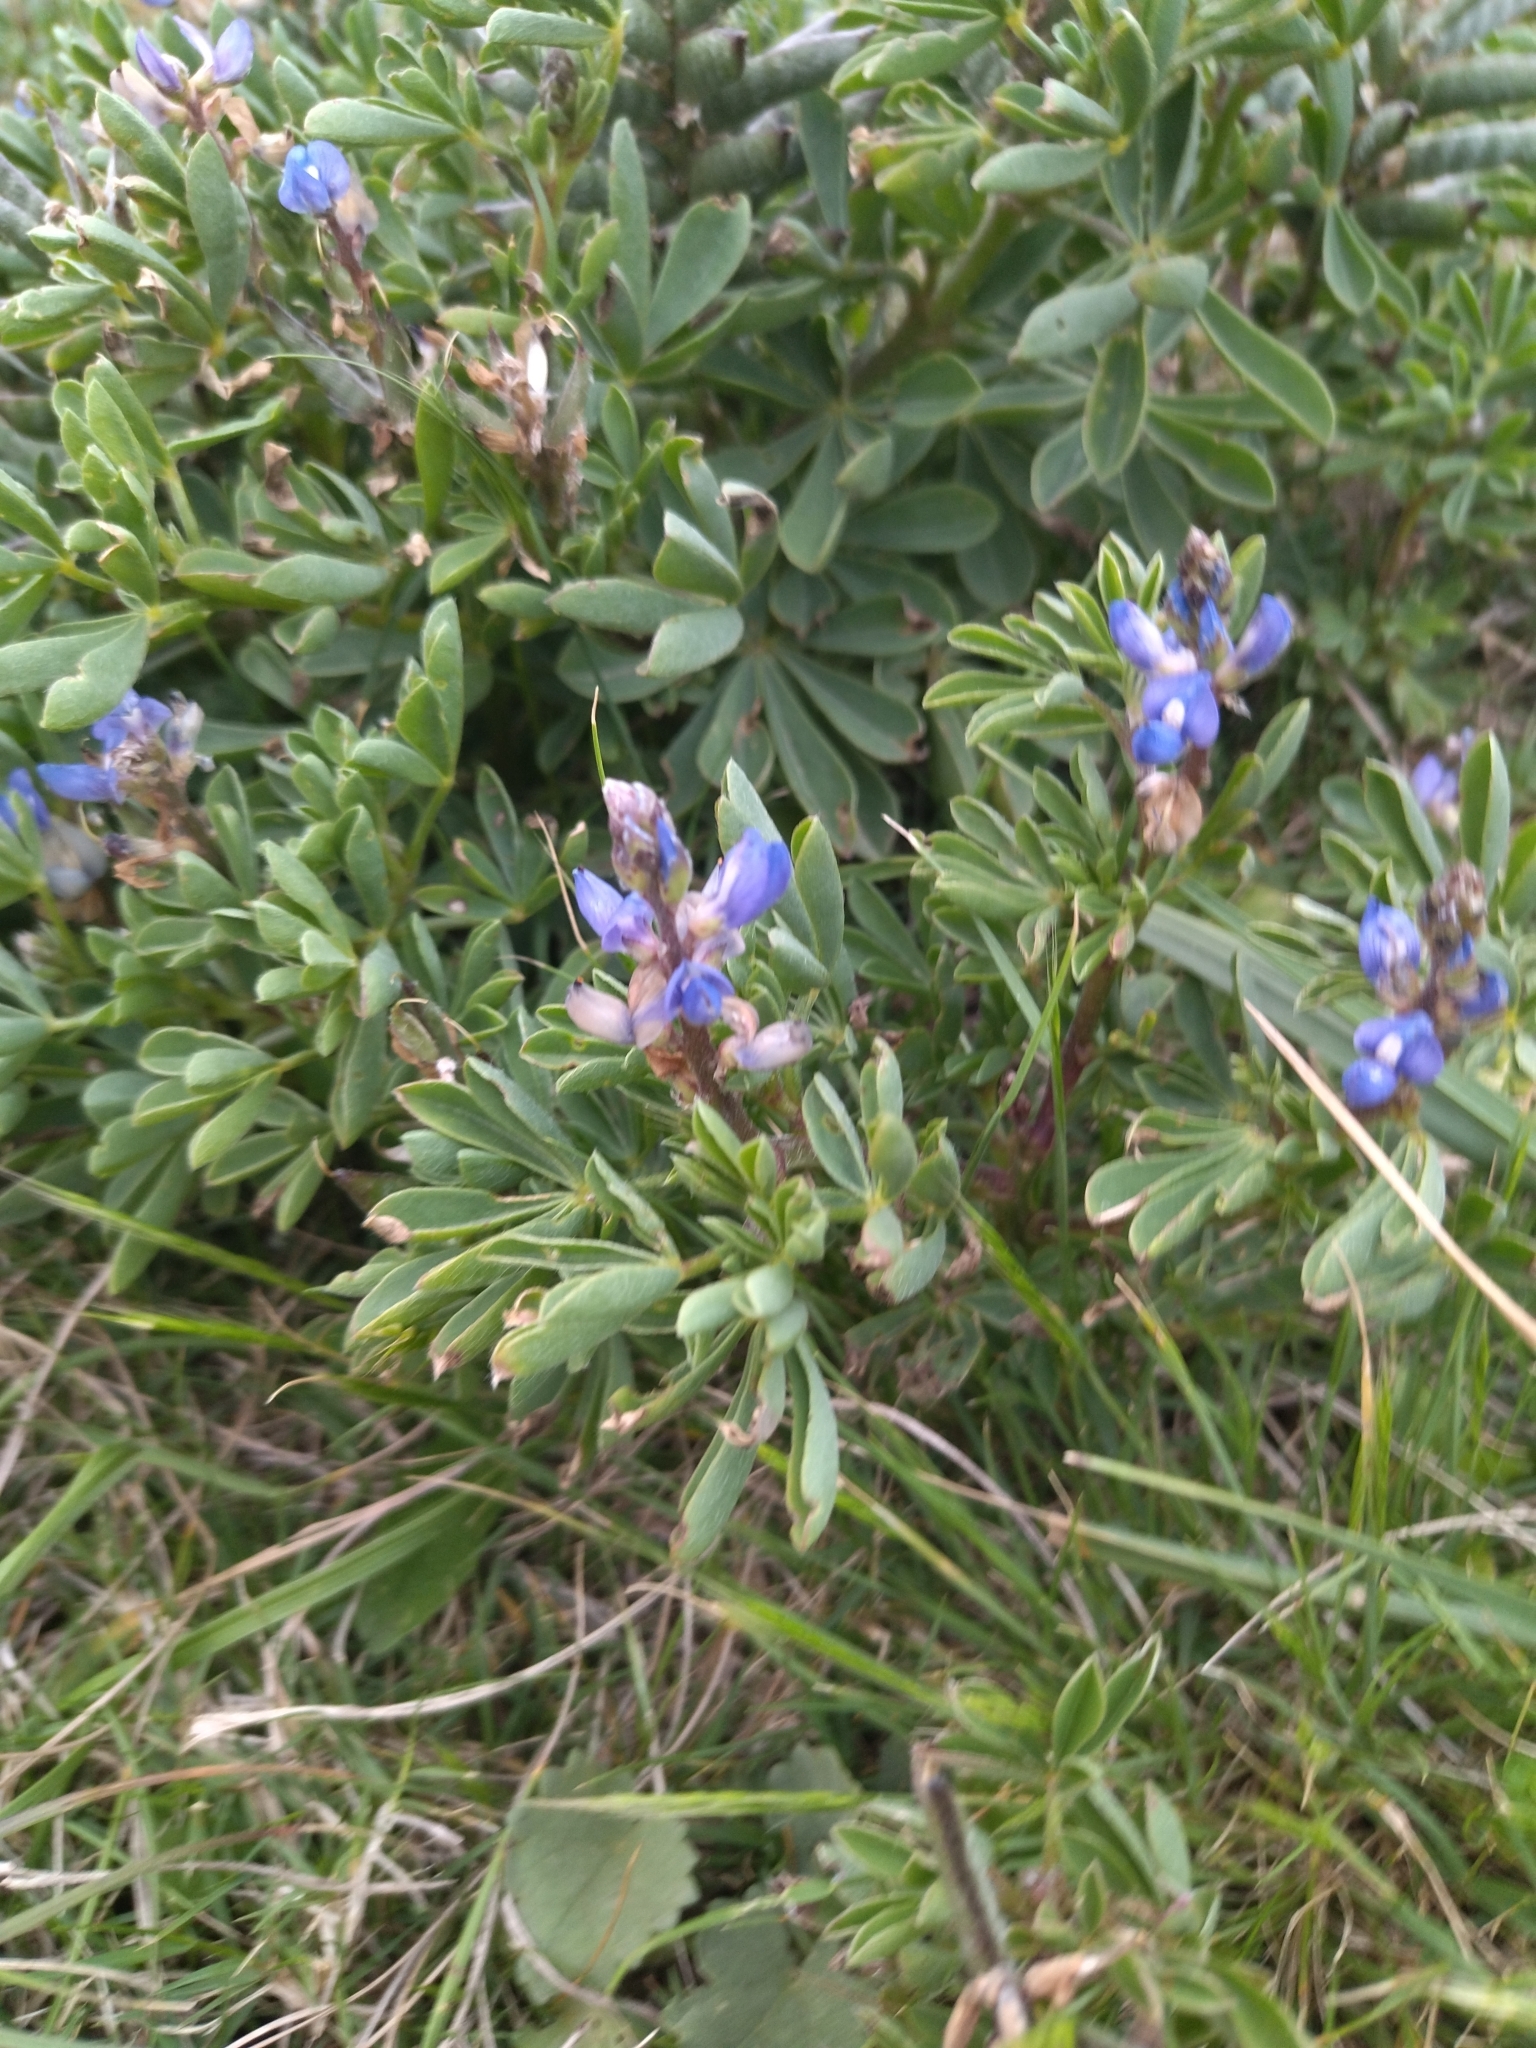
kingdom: Plantae
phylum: Tracheophyta
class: Magnoliopsida
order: Fabales
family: Fabaceae
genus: Lupinus
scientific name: Lupinus gibertianus
